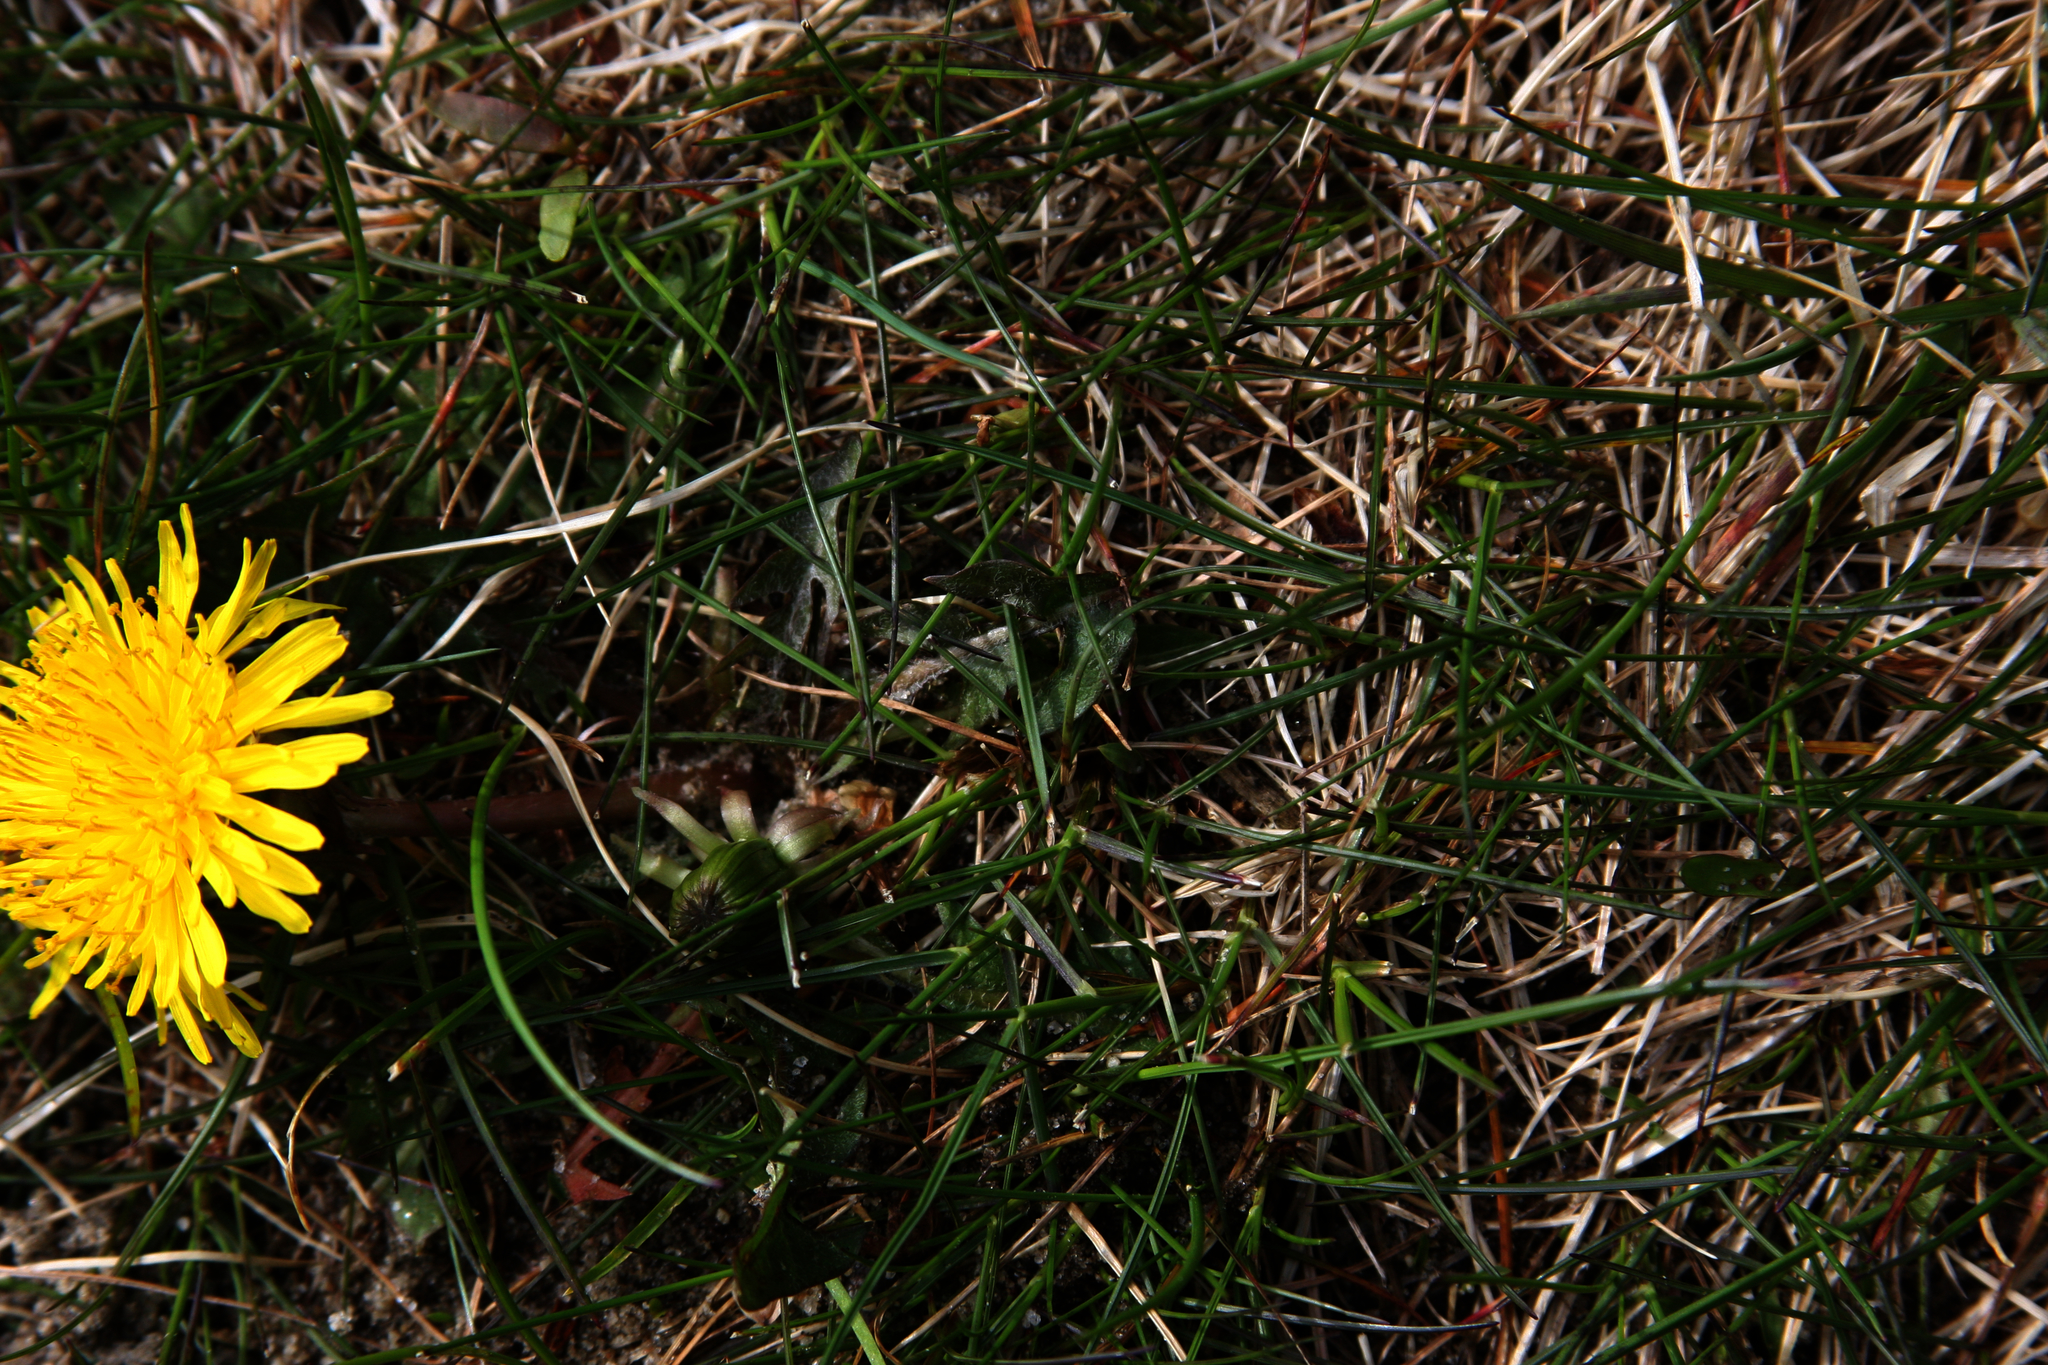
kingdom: Plantae
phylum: Tracheophyta
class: Magnoliopsida
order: Asterales
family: Asteraceae
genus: Taraxacum
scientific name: Taraxacum officinale
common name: Common dandelion
